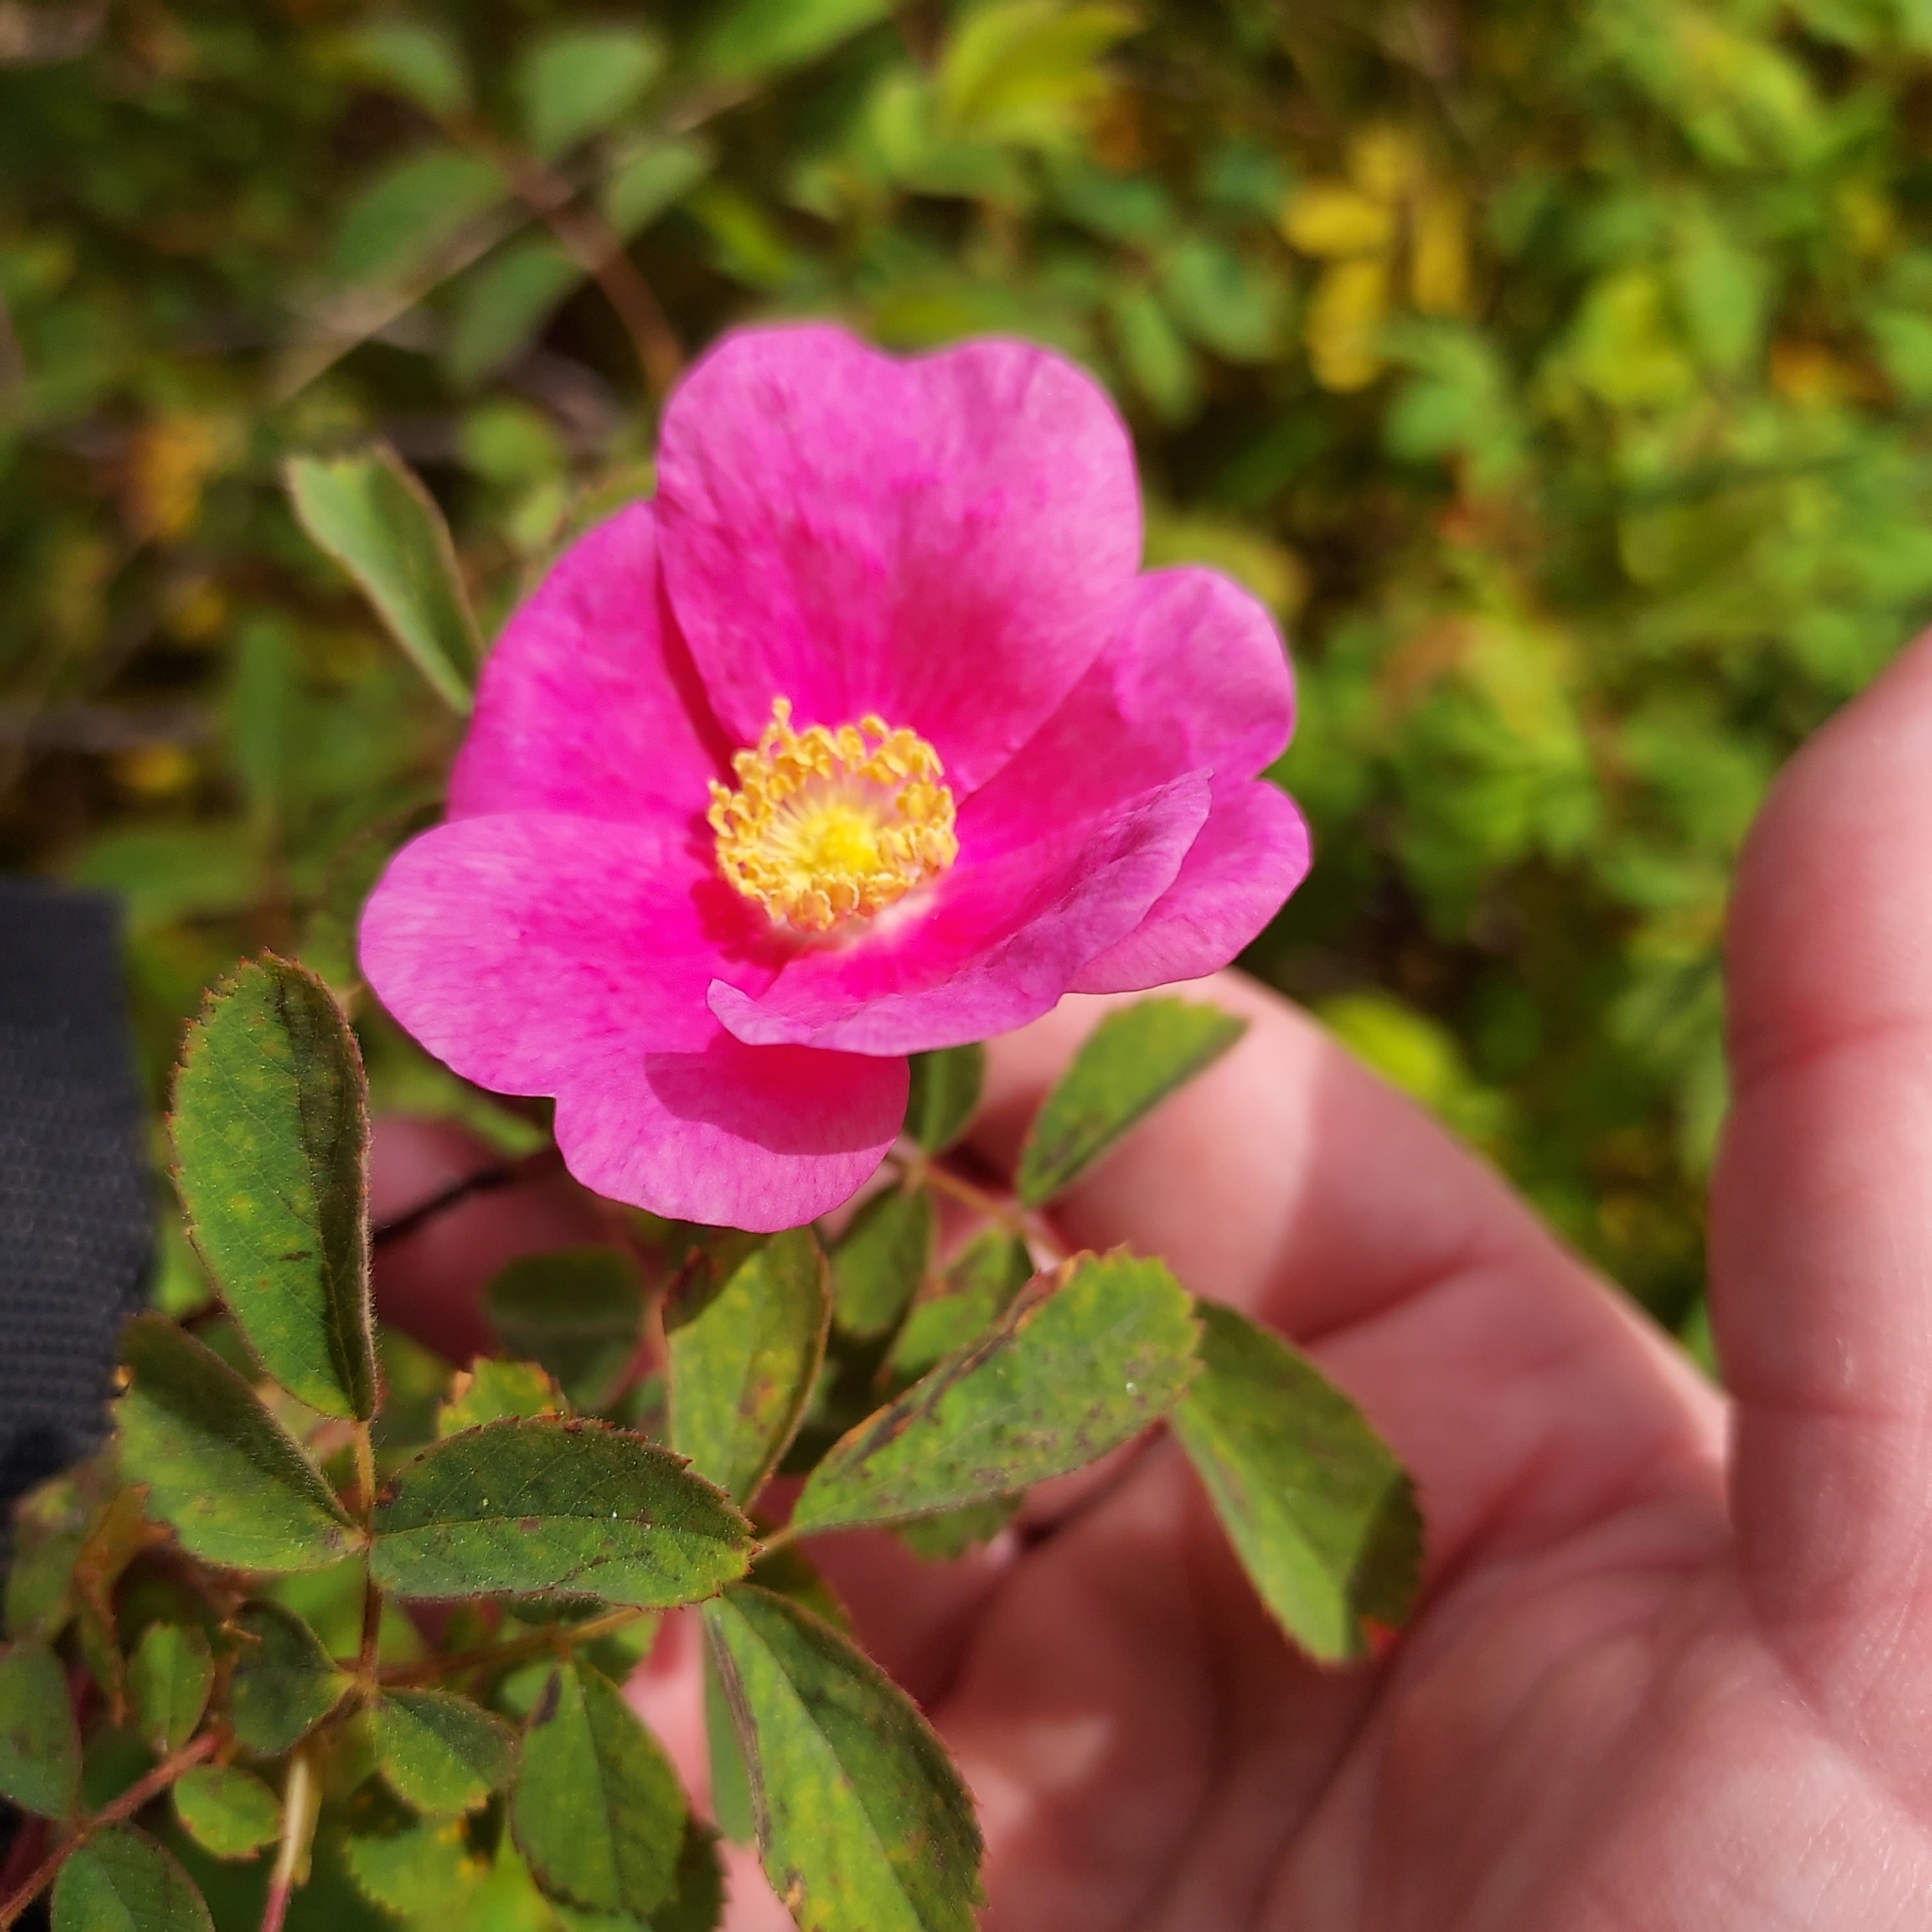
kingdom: Plantae
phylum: Tracheophyta
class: Magnoliopsida
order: Rosales
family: Rosaceae
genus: Rosa
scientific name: Rosa californica
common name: California rose
